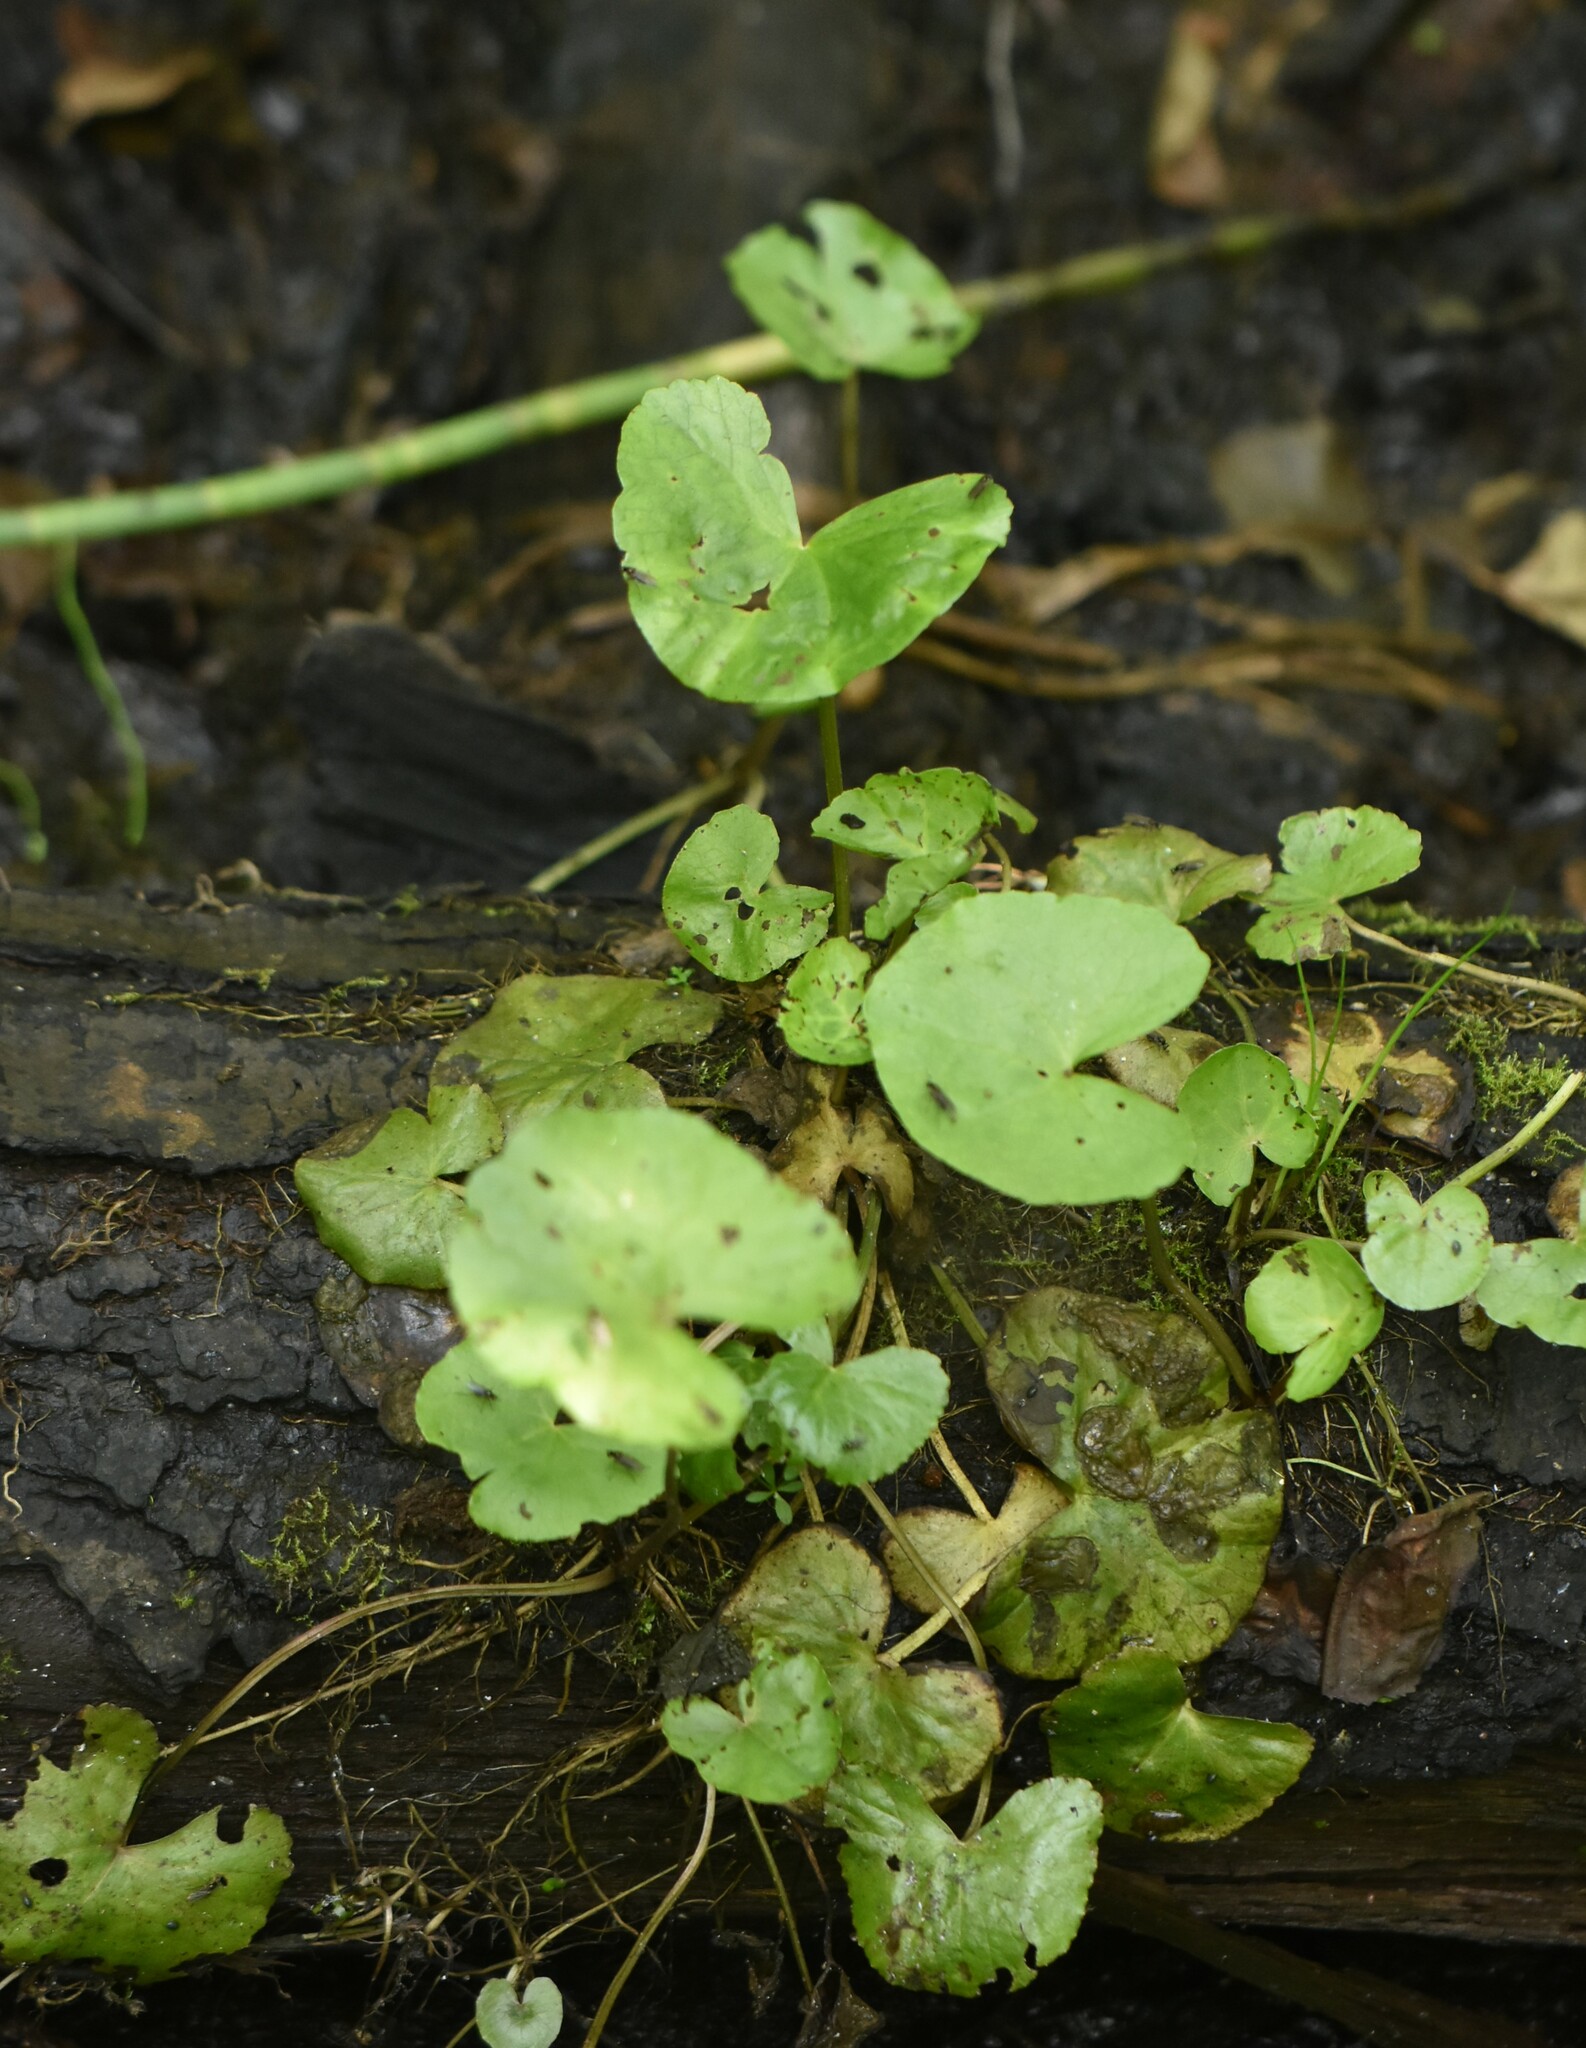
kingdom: Plantae
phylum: Tracheophyta
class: Magnoliopsida
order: Ranunculales
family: Ranunculaceae
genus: Ficaria
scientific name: Ficaria verna
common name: Lesser celandine
